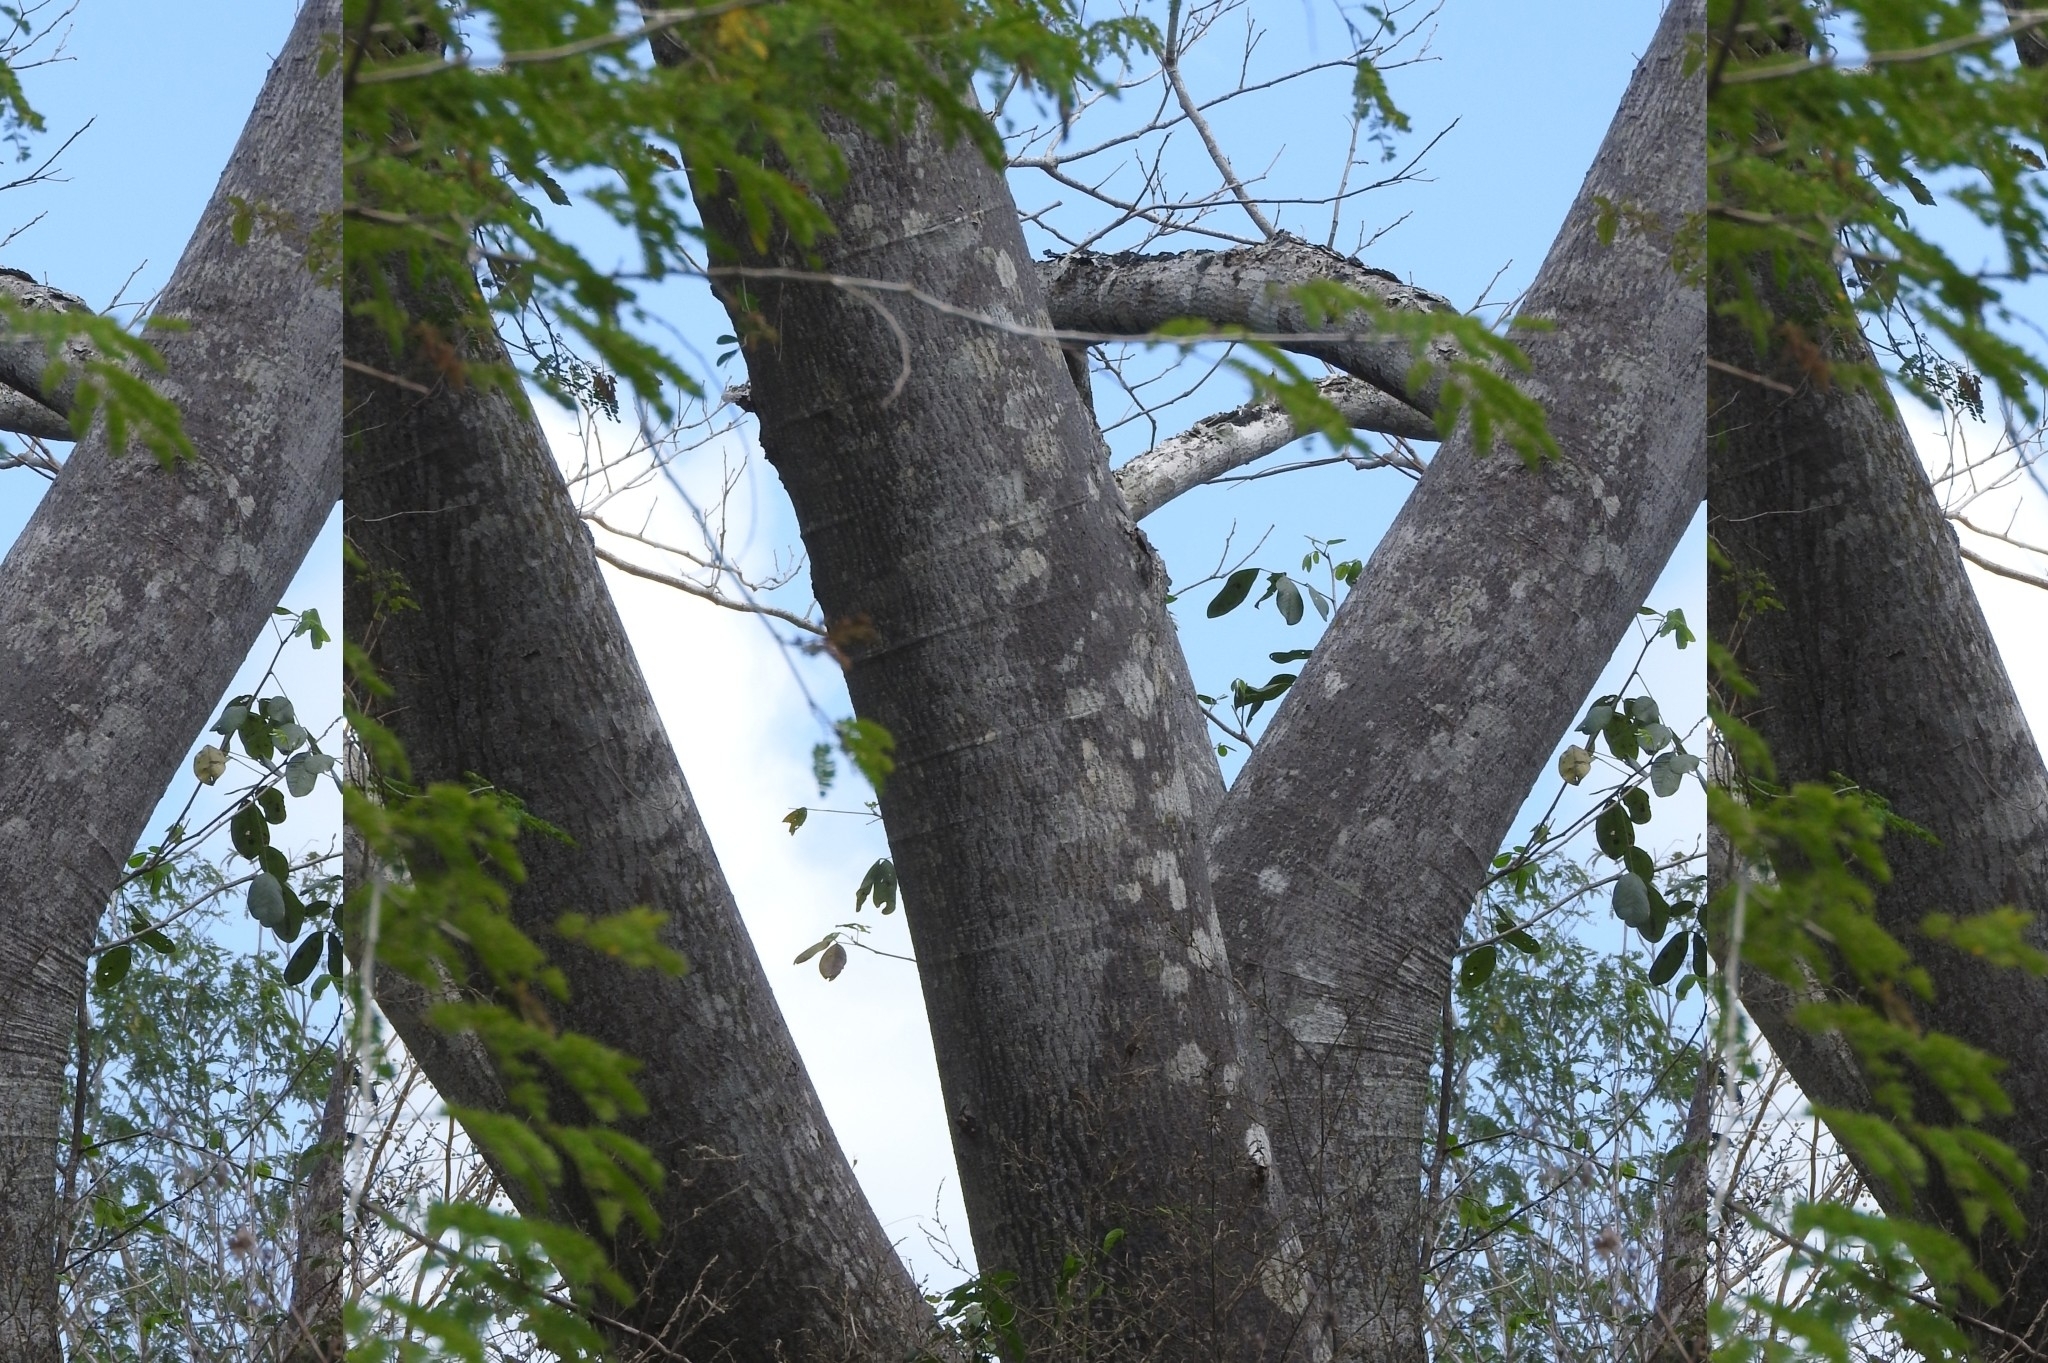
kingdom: Plantae
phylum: Tracheophyta
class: Magnoliopsida
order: Fabales
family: Fabaceae
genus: Enterolobium
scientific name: Enterolobium cyclocarpum
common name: Ear tree
